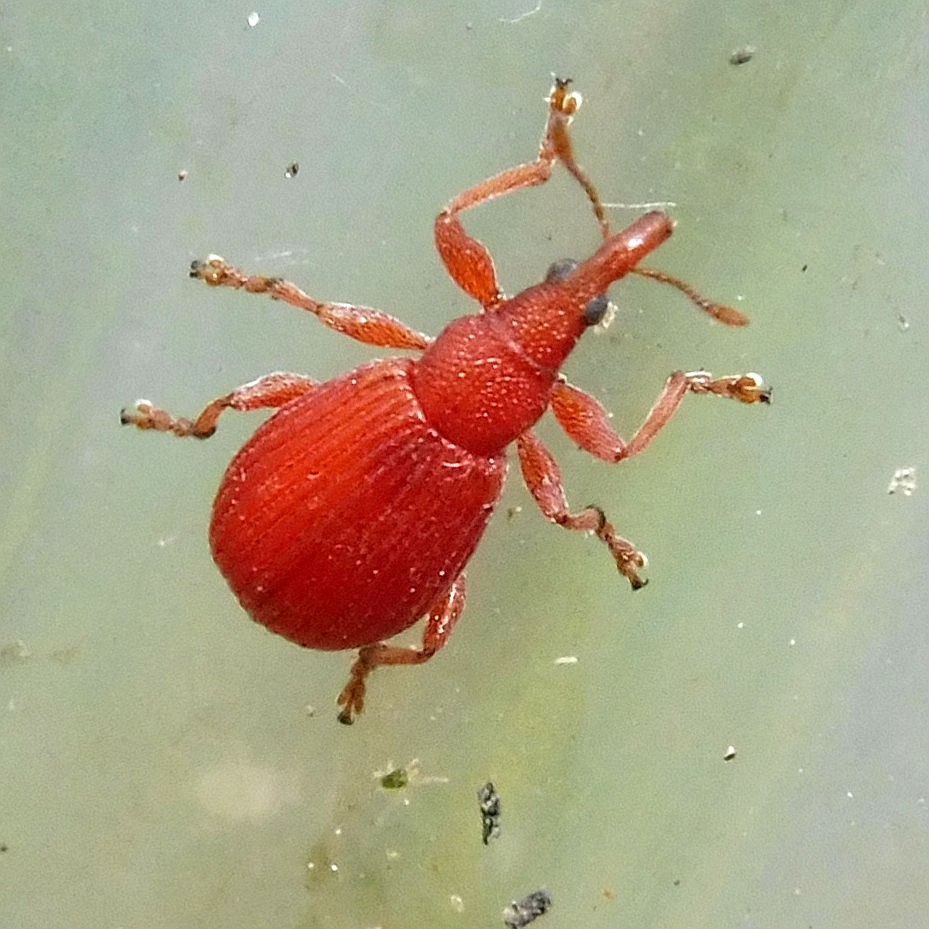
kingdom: Animalia
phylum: Arthropoda
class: Insecta
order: Coleoptera
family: Apionidae
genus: Apion
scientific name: Apion frumentarium
